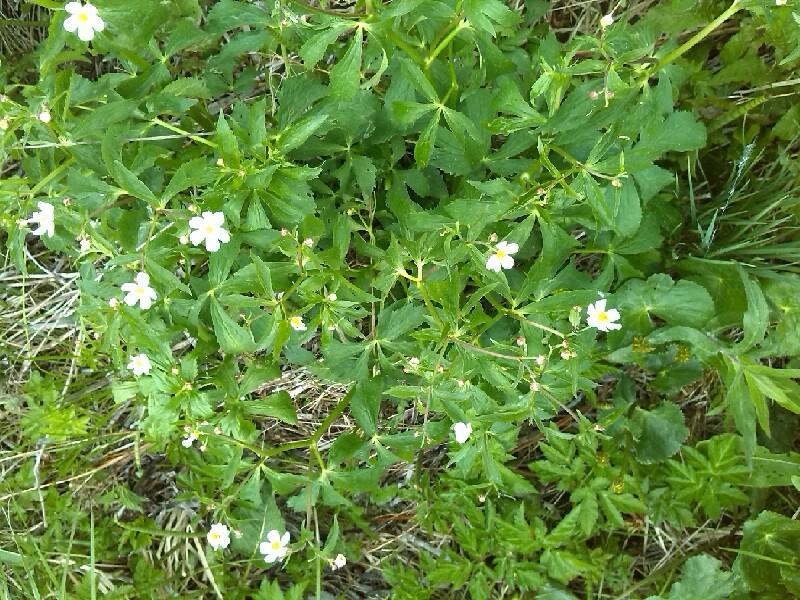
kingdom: Plantae
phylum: Tracheophyta
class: Magnoliopsida
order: Ranunculales
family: Ranunculaceae
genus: Ranunculus
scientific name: Ranunculus aconitifolius
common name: Aconite-leaved buttercup
